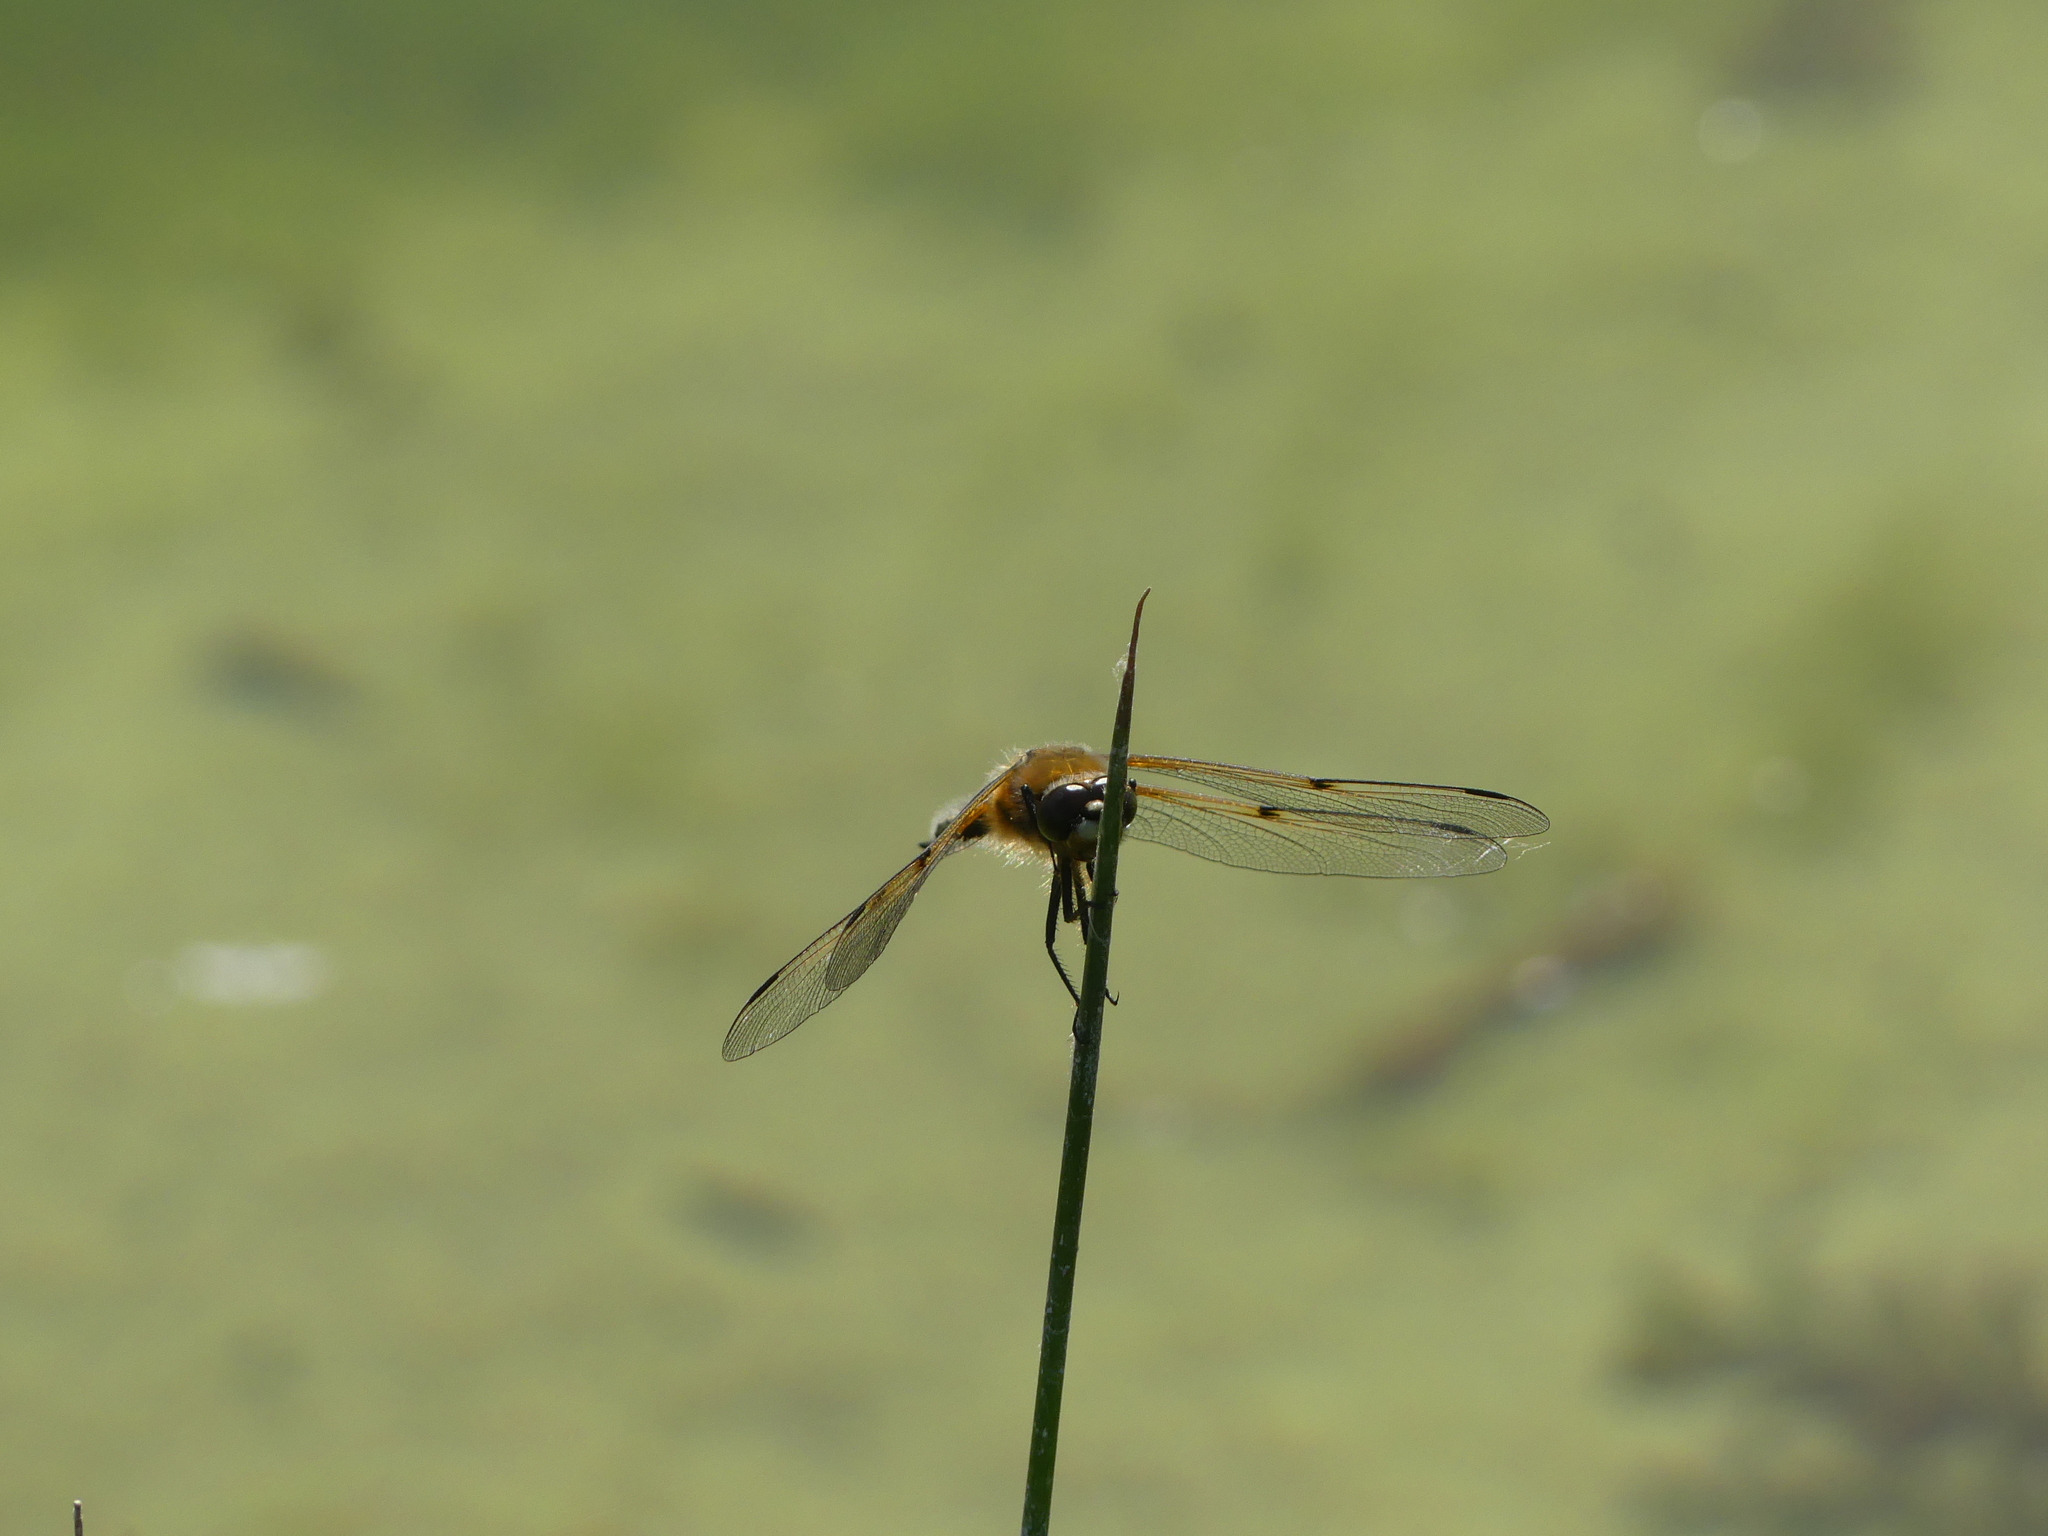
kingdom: Animalia
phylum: Arthropoda
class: Insecta
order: Odonata
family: Libellulidae
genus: Libellula
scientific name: Libellula quadrimaculata
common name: Four-spotted chaser
